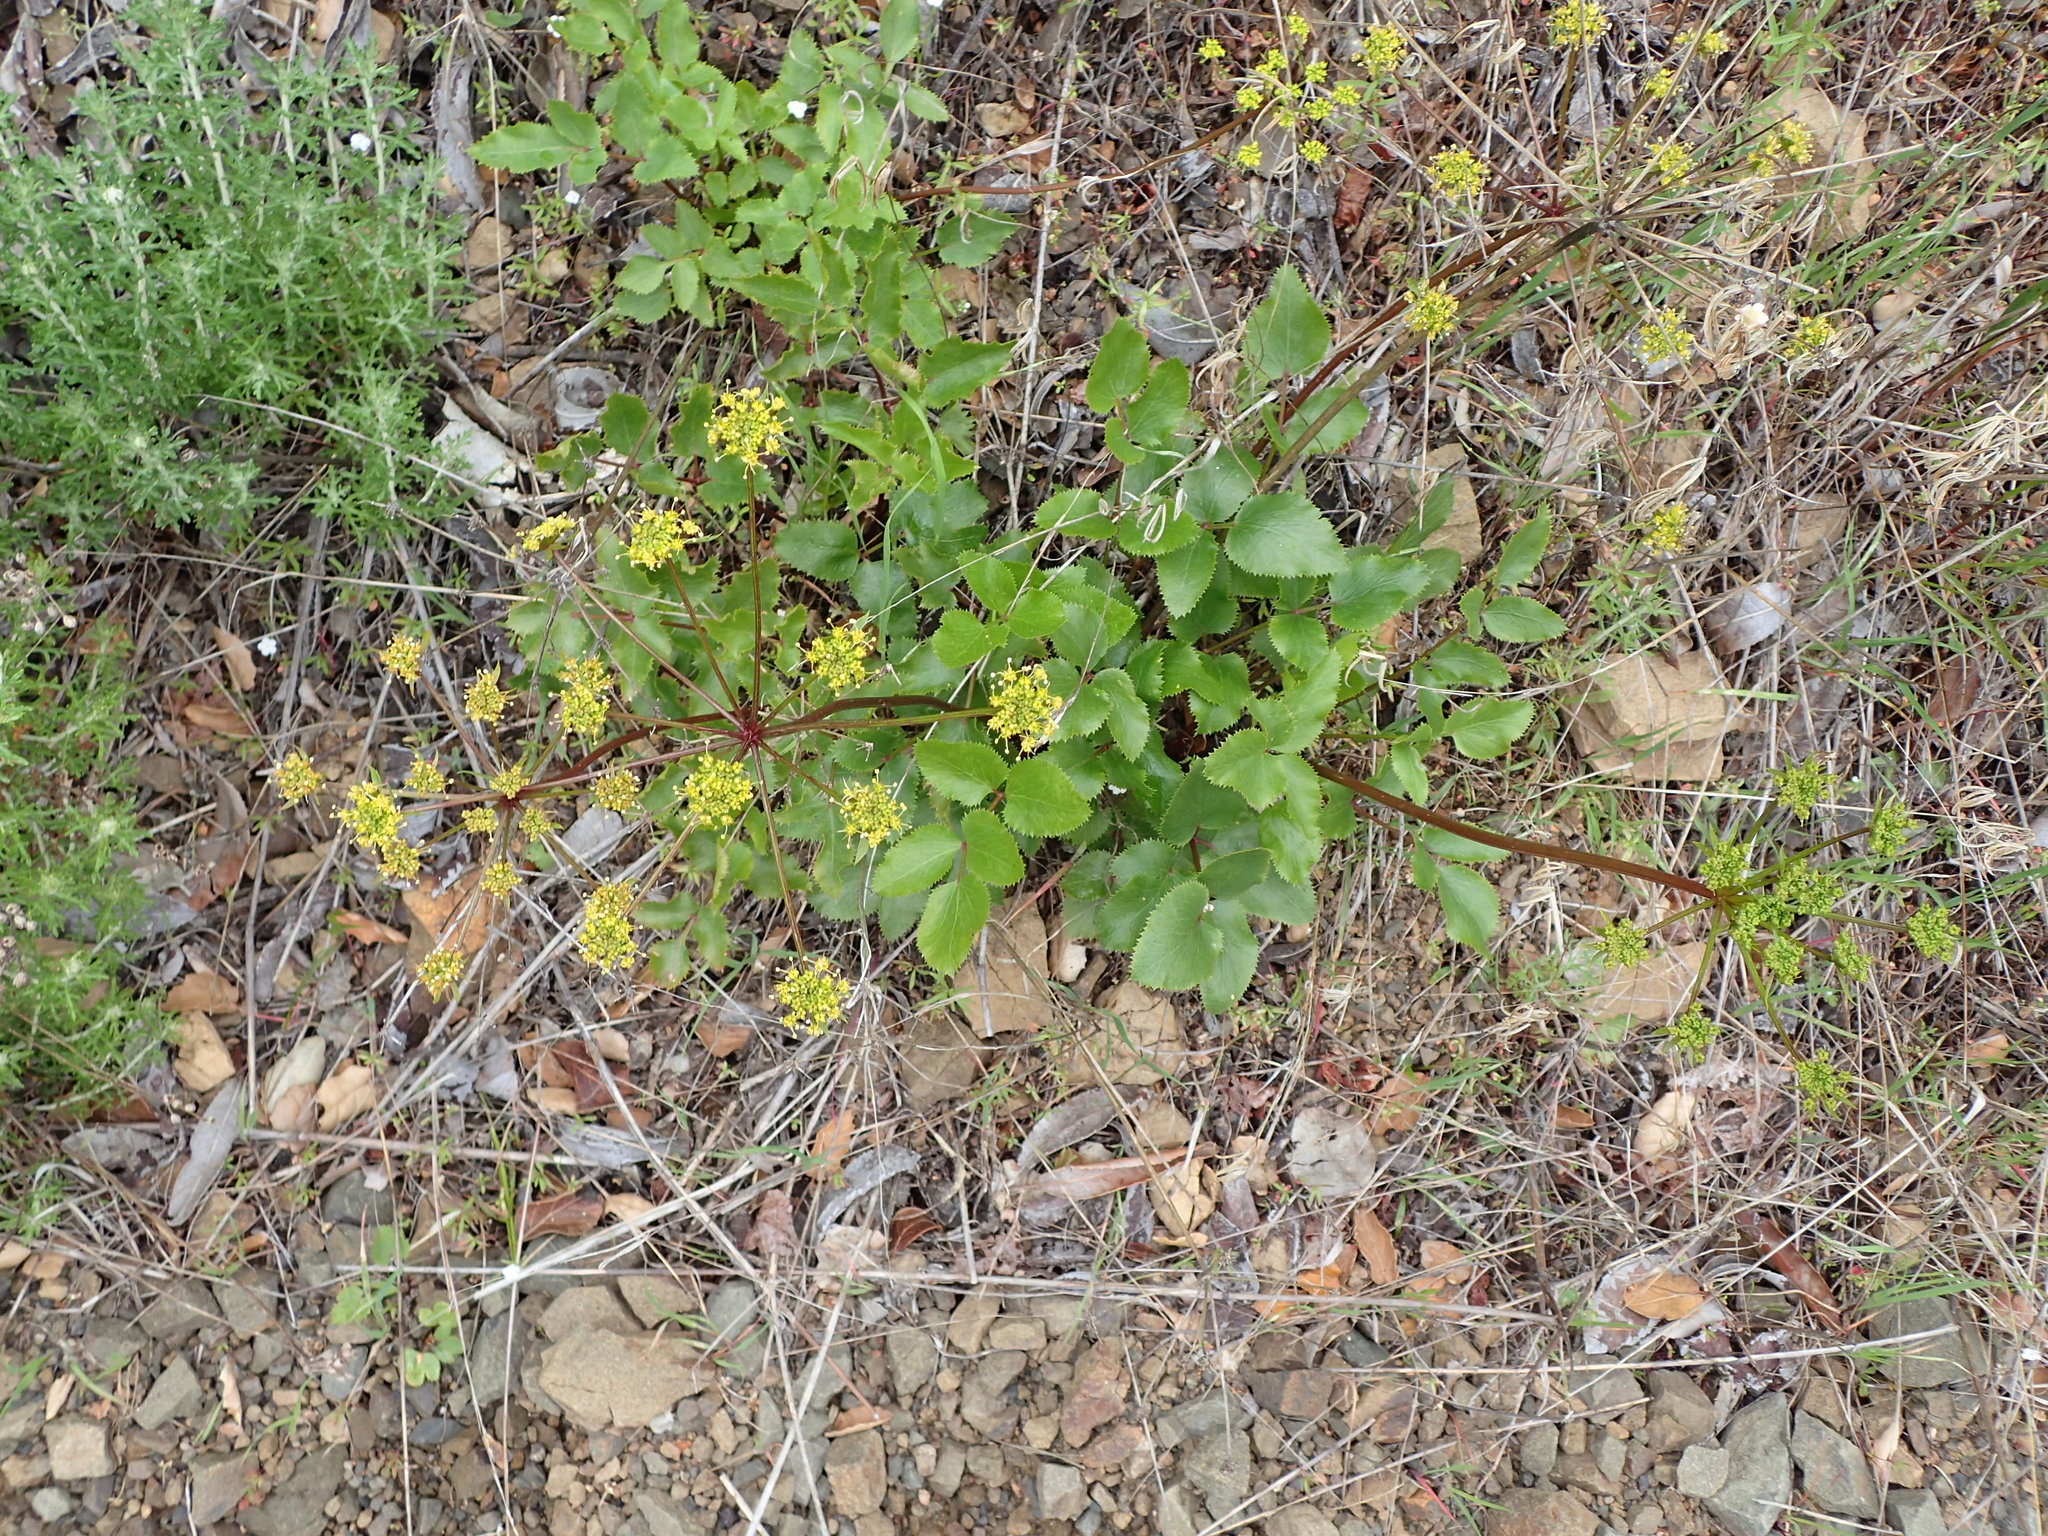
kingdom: Plantae
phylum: Tracheophyta
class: Magnoliopsida
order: Apiales
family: Apiaceae
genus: Tauschia
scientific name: Tauschia arguta
